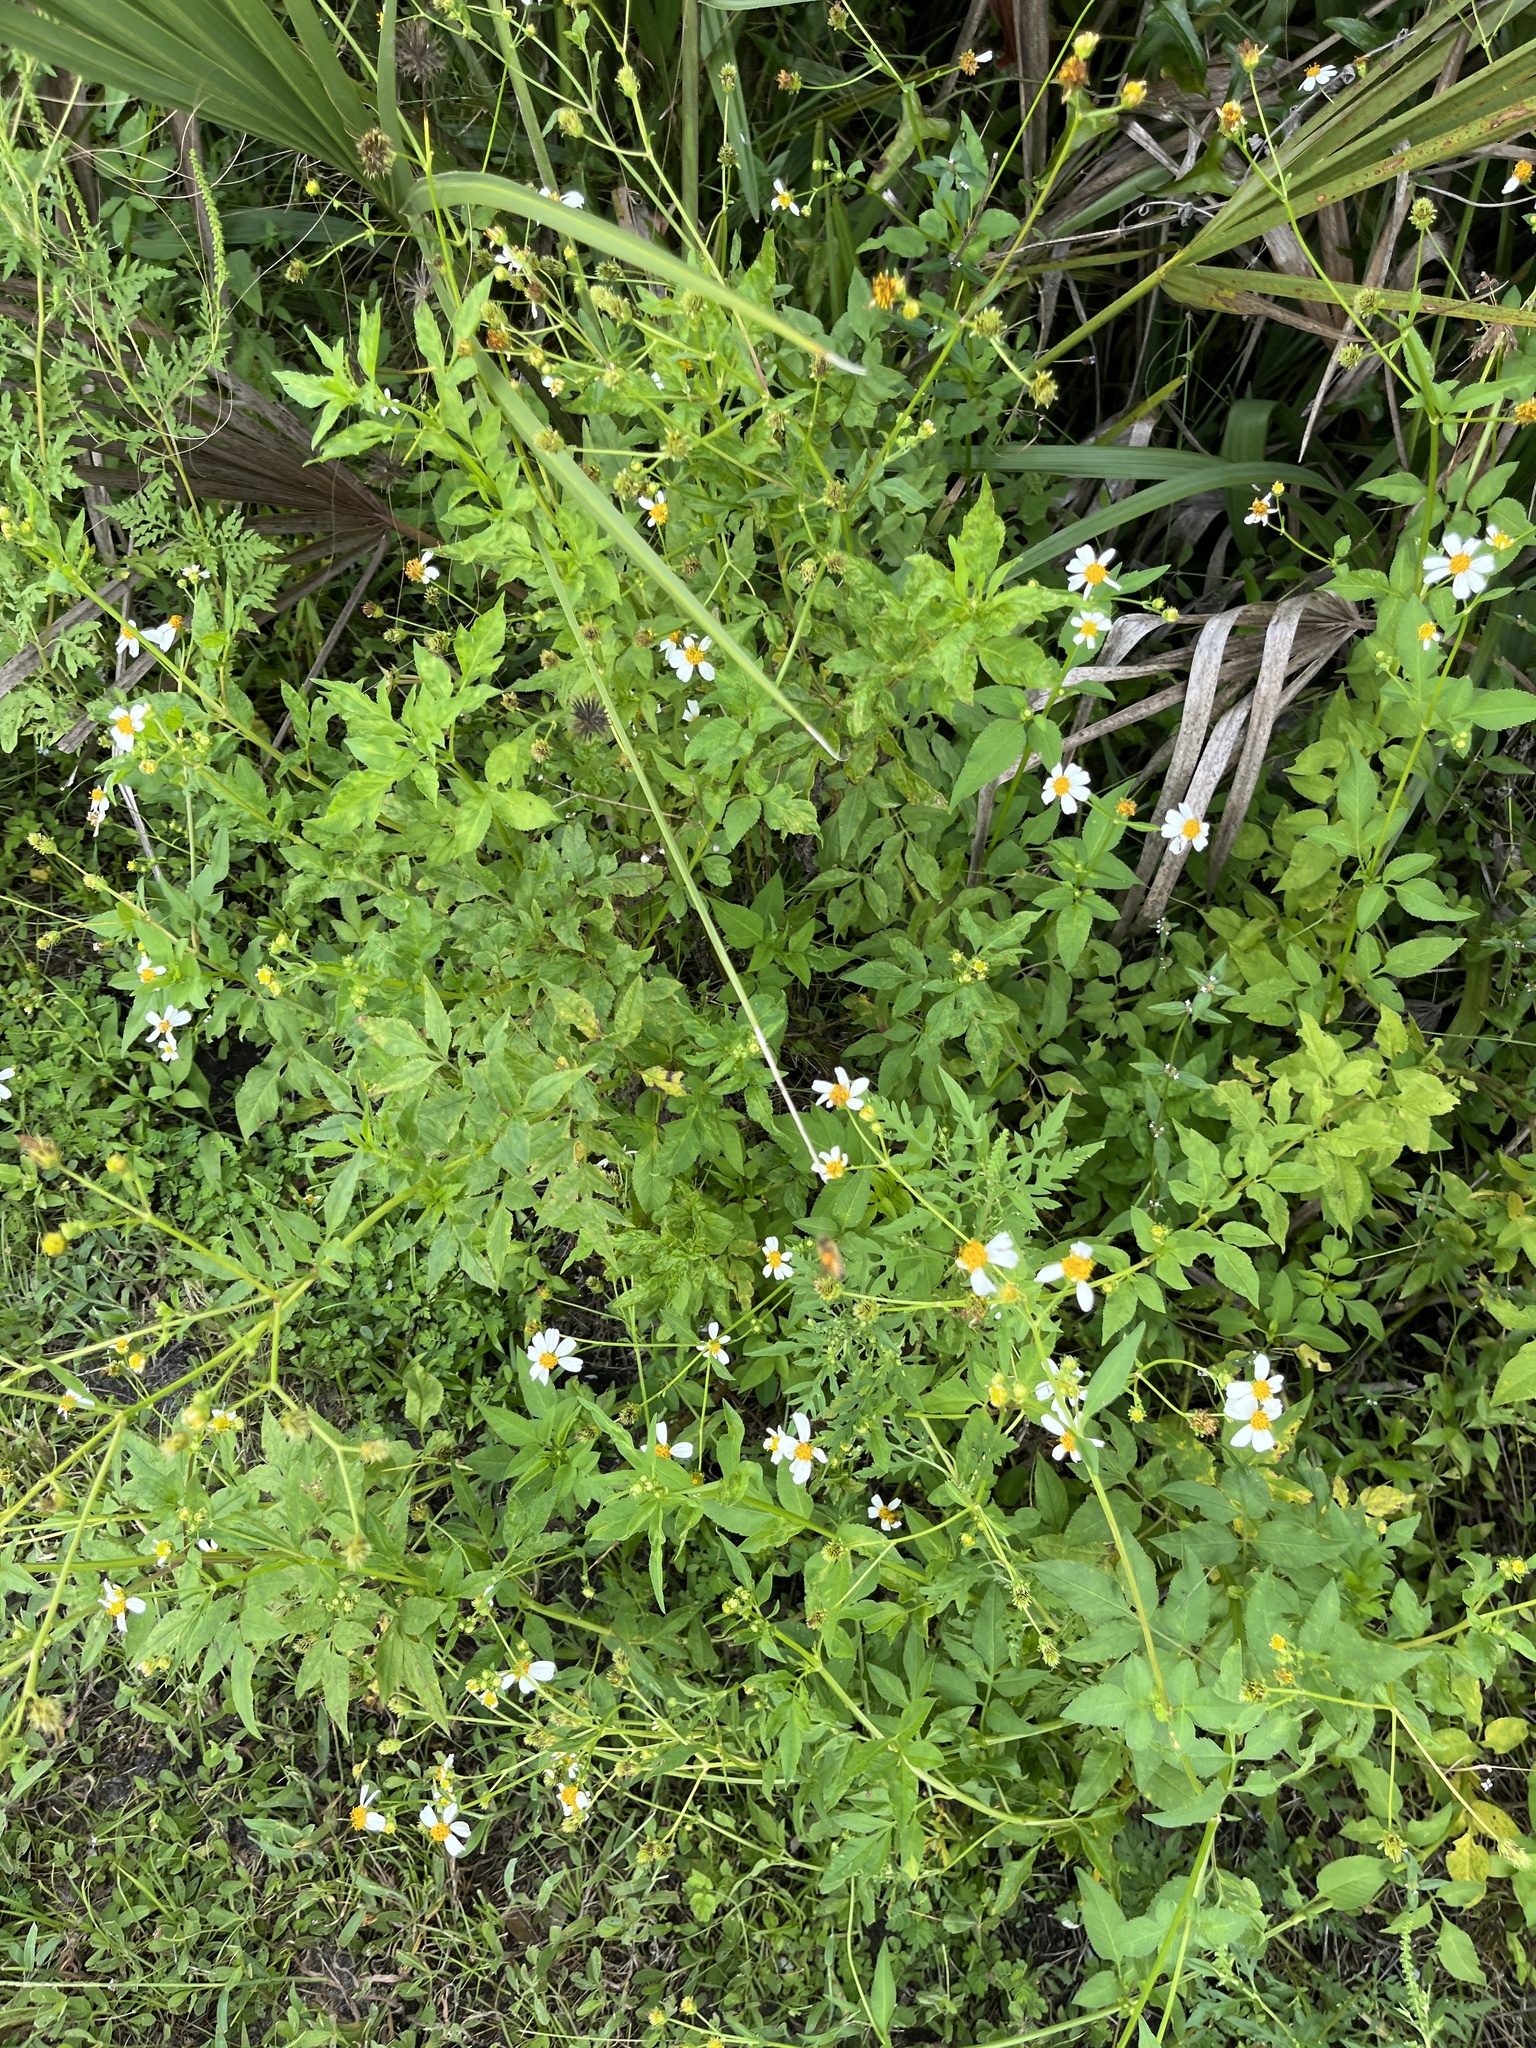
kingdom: Plantae
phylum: Tracheophyta
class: Magnoliopsida
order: Asterales
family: Asteraceae
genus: Bidens
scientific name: Bidens alba
